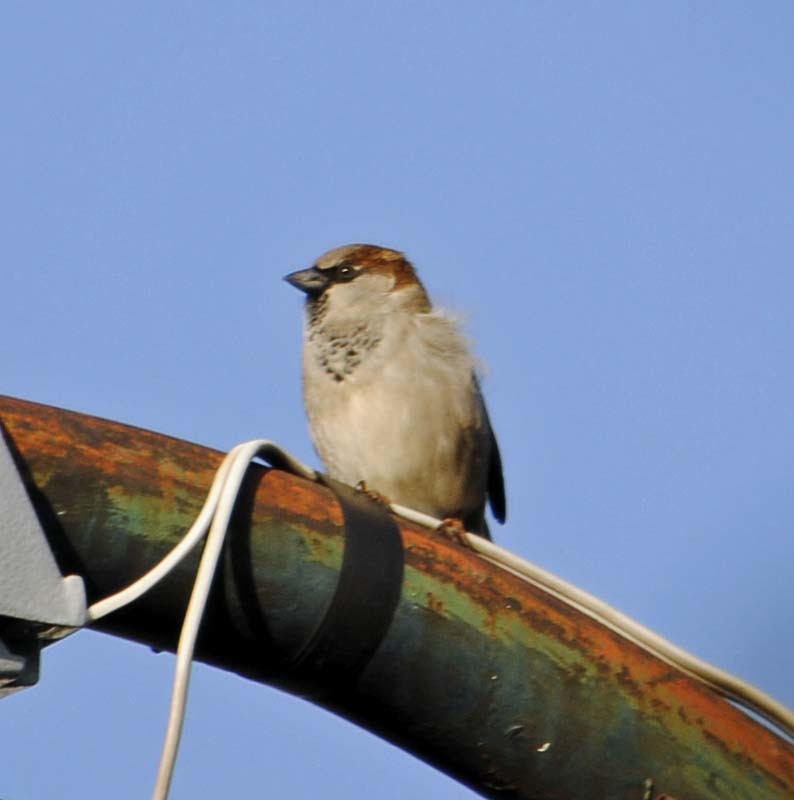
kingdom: Animalia
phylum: Chordata
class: Aves
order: Passeriformes
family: Passeridae
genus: Passer
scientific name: Passer domesticus
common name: House sparrow
